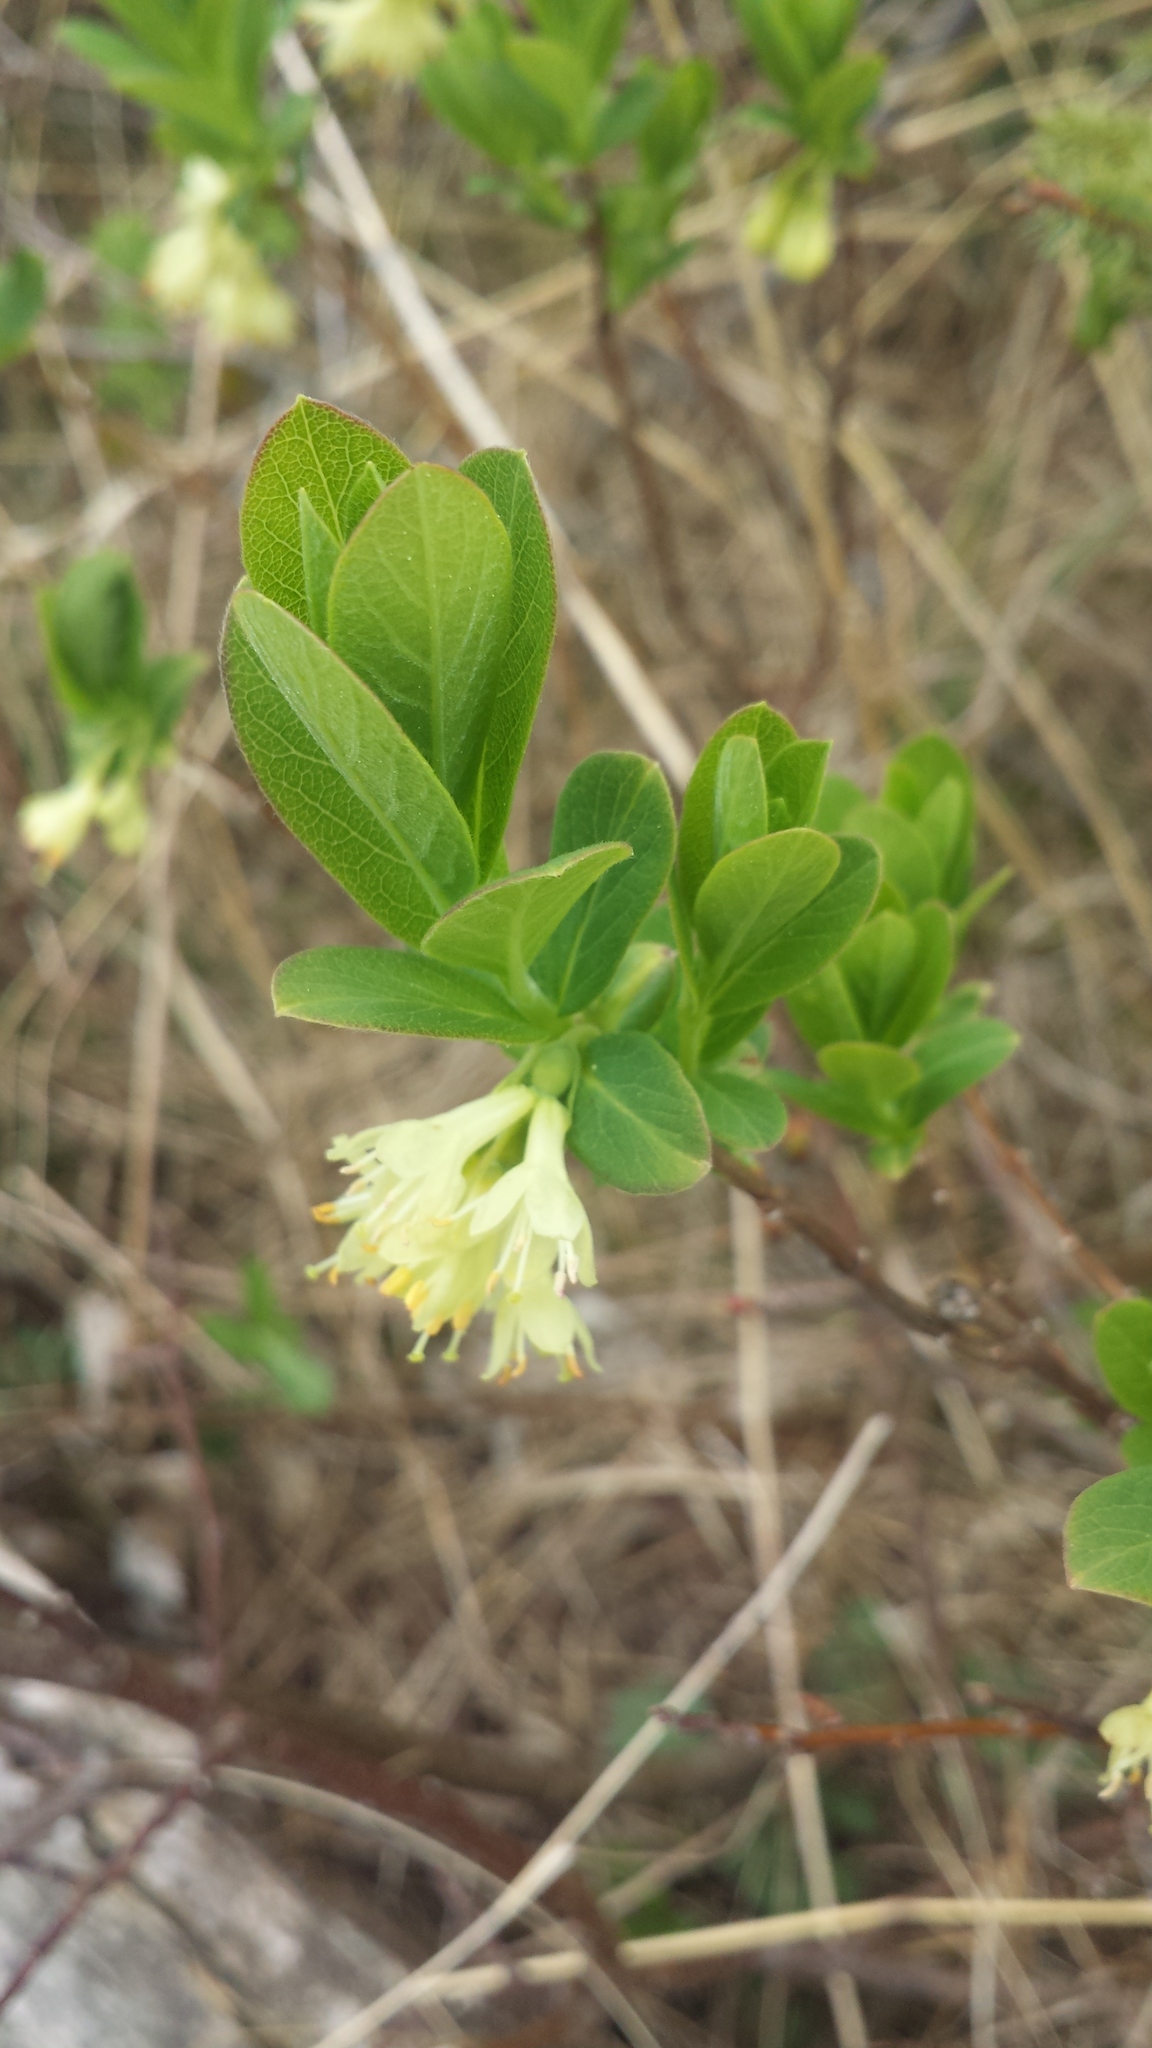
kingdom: Plantae
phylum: Tracheophyta
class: Magnoliopsida
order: Dipsacales
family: Caprifoliaceae
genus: Lonicera
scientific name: Lonicera villosa
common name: Mountain fly-honeysuckle
